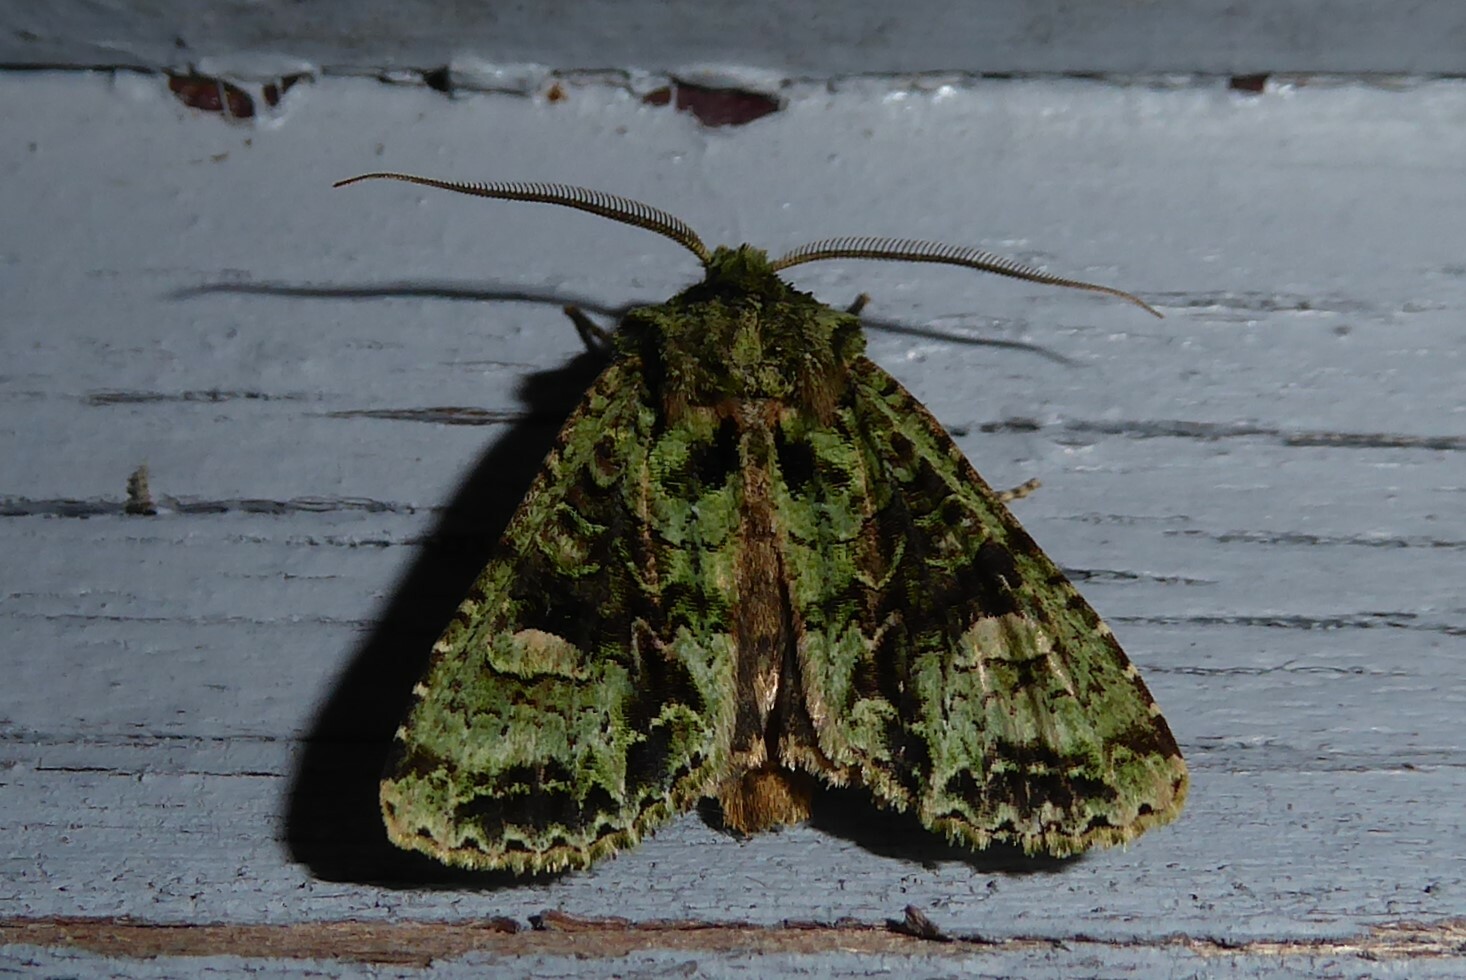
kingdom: Animalia
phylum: Arthropoda
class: Insecta
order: Lepidoptera
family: Noctuidae
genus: Ichneutica
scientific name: Ichneutica
